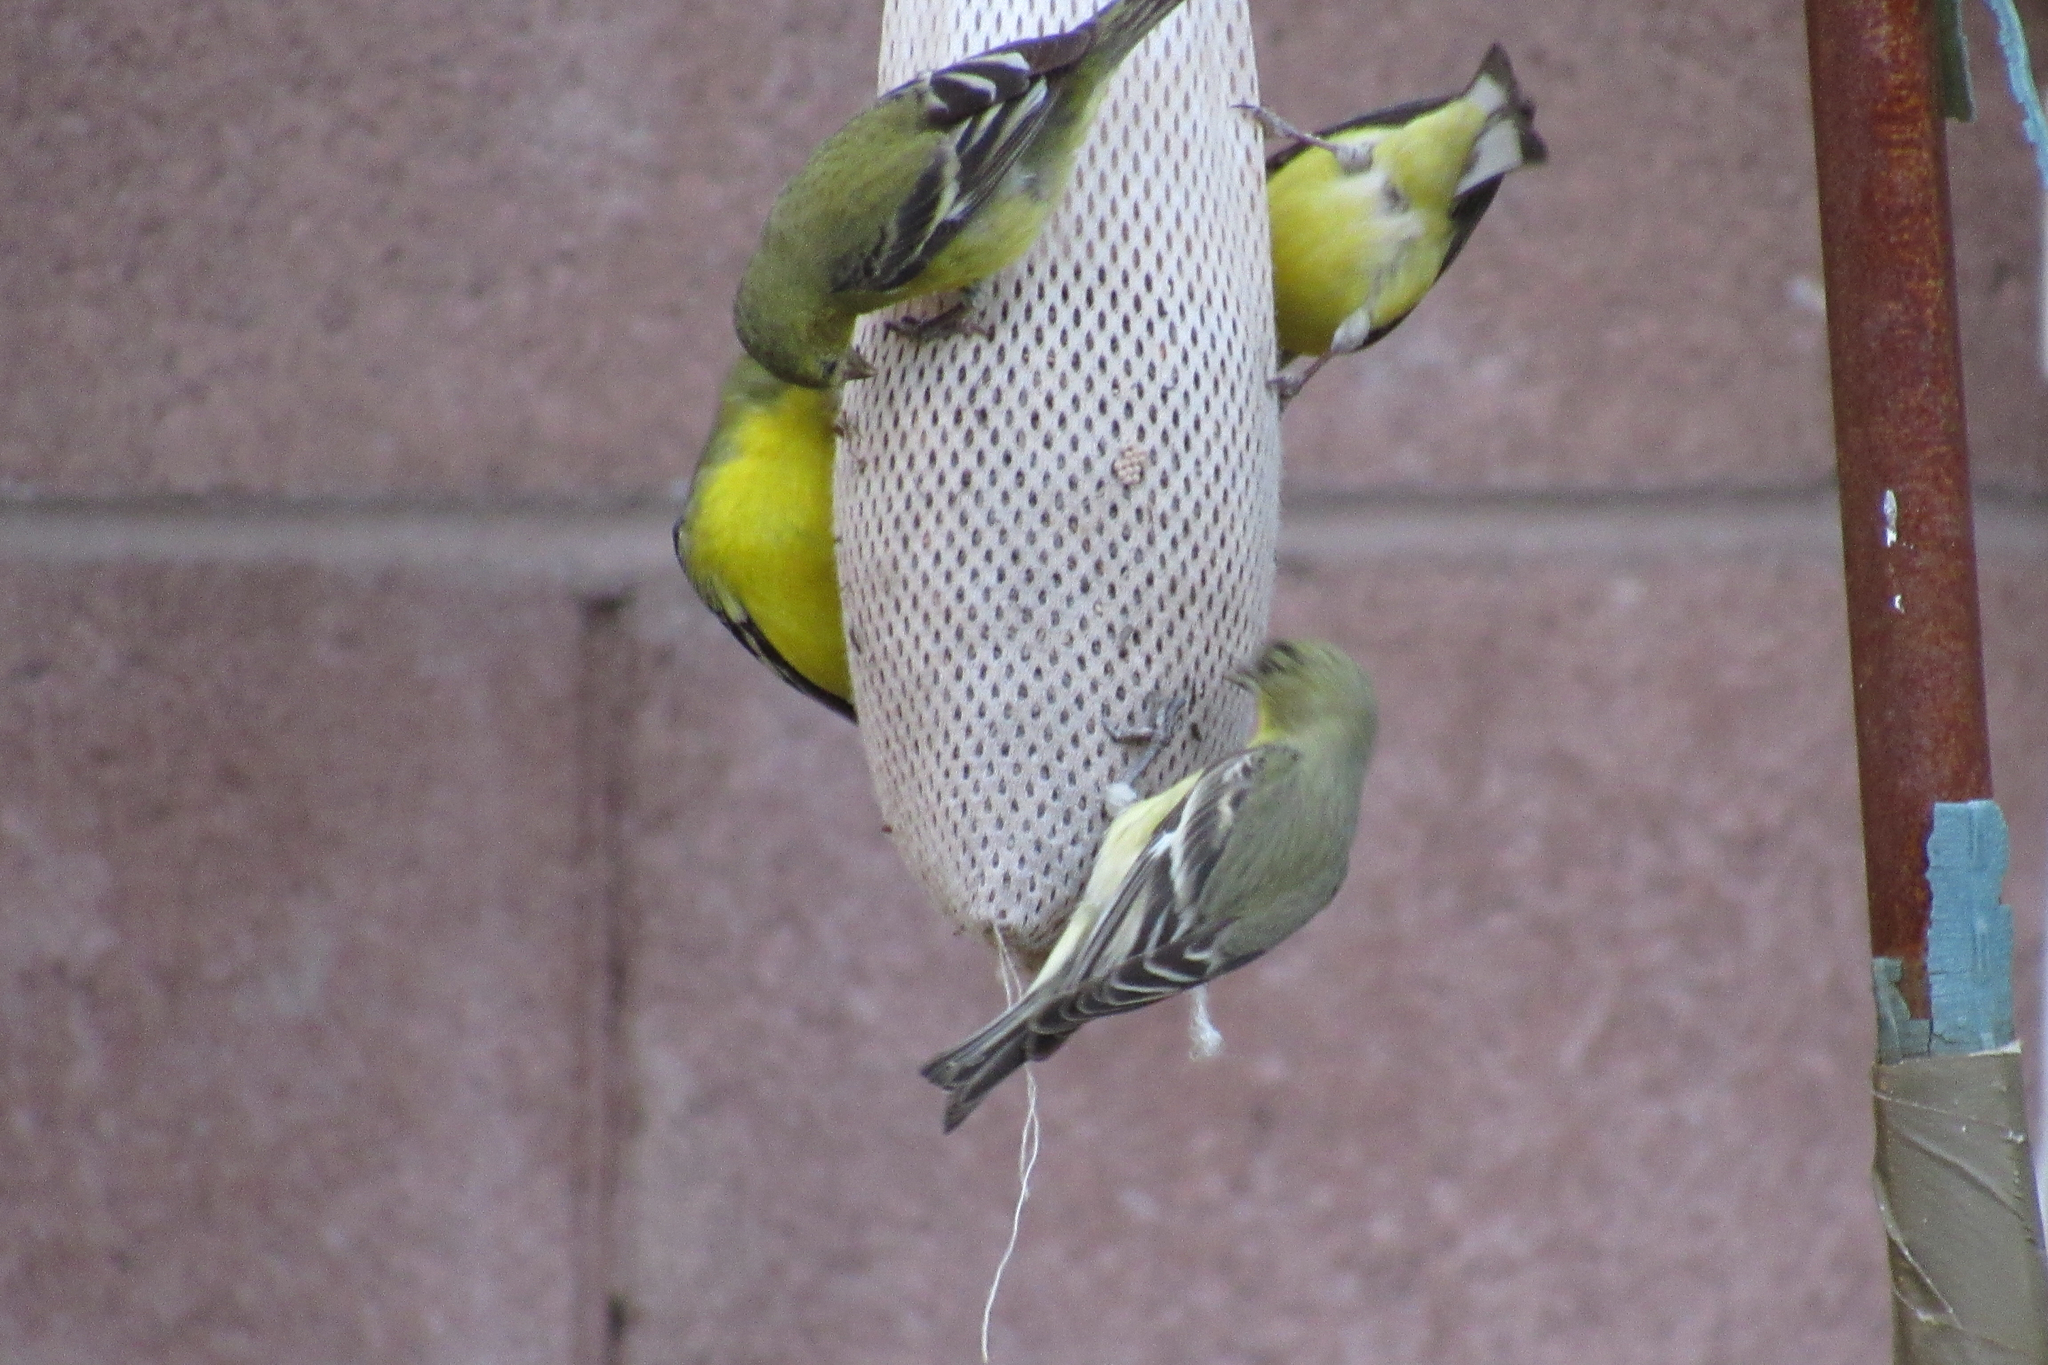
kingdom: Animalia
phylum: Chordata
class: Aves
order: Passeriformes
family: Fringillidae
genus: Spinus
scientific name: Spinus psaltria
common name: Lesser goldfinch
